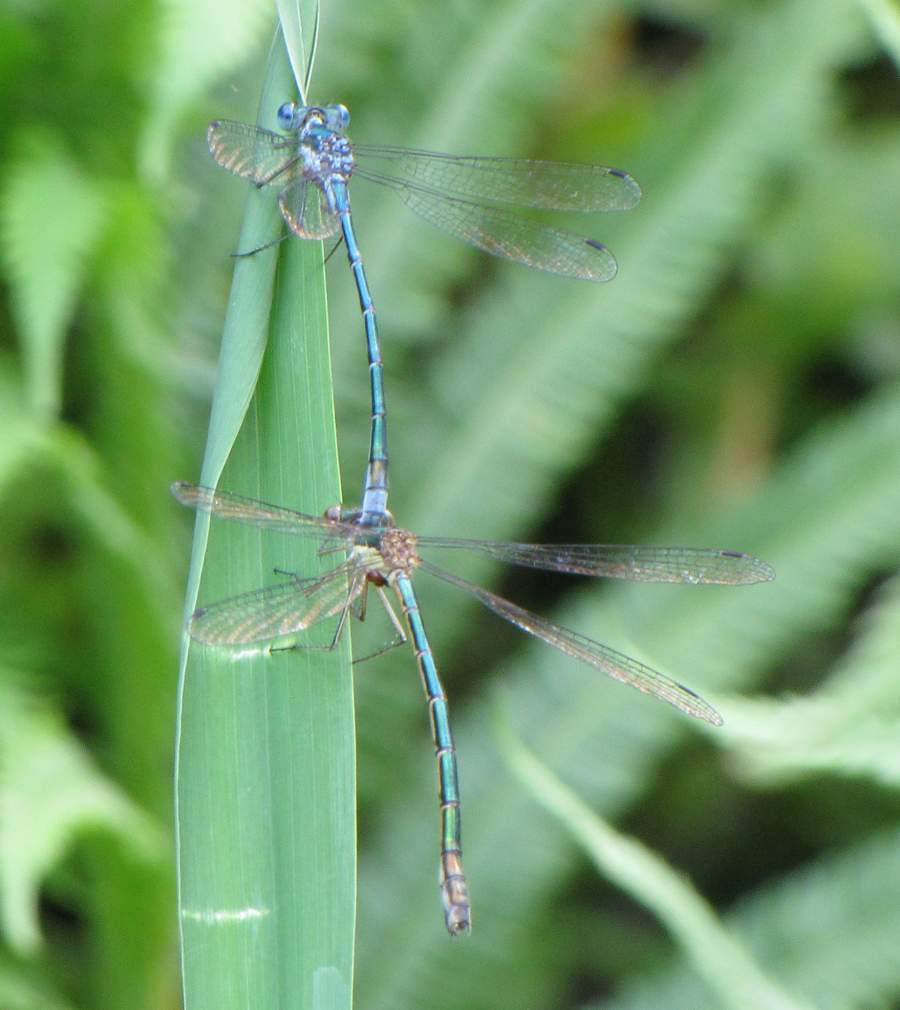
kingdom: Animalia
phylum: Arthropoda
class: Insecta
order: Odonata
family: Lestidae
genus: Lestes
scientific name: Lestes dryas
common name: Scarce emerald damselfly
